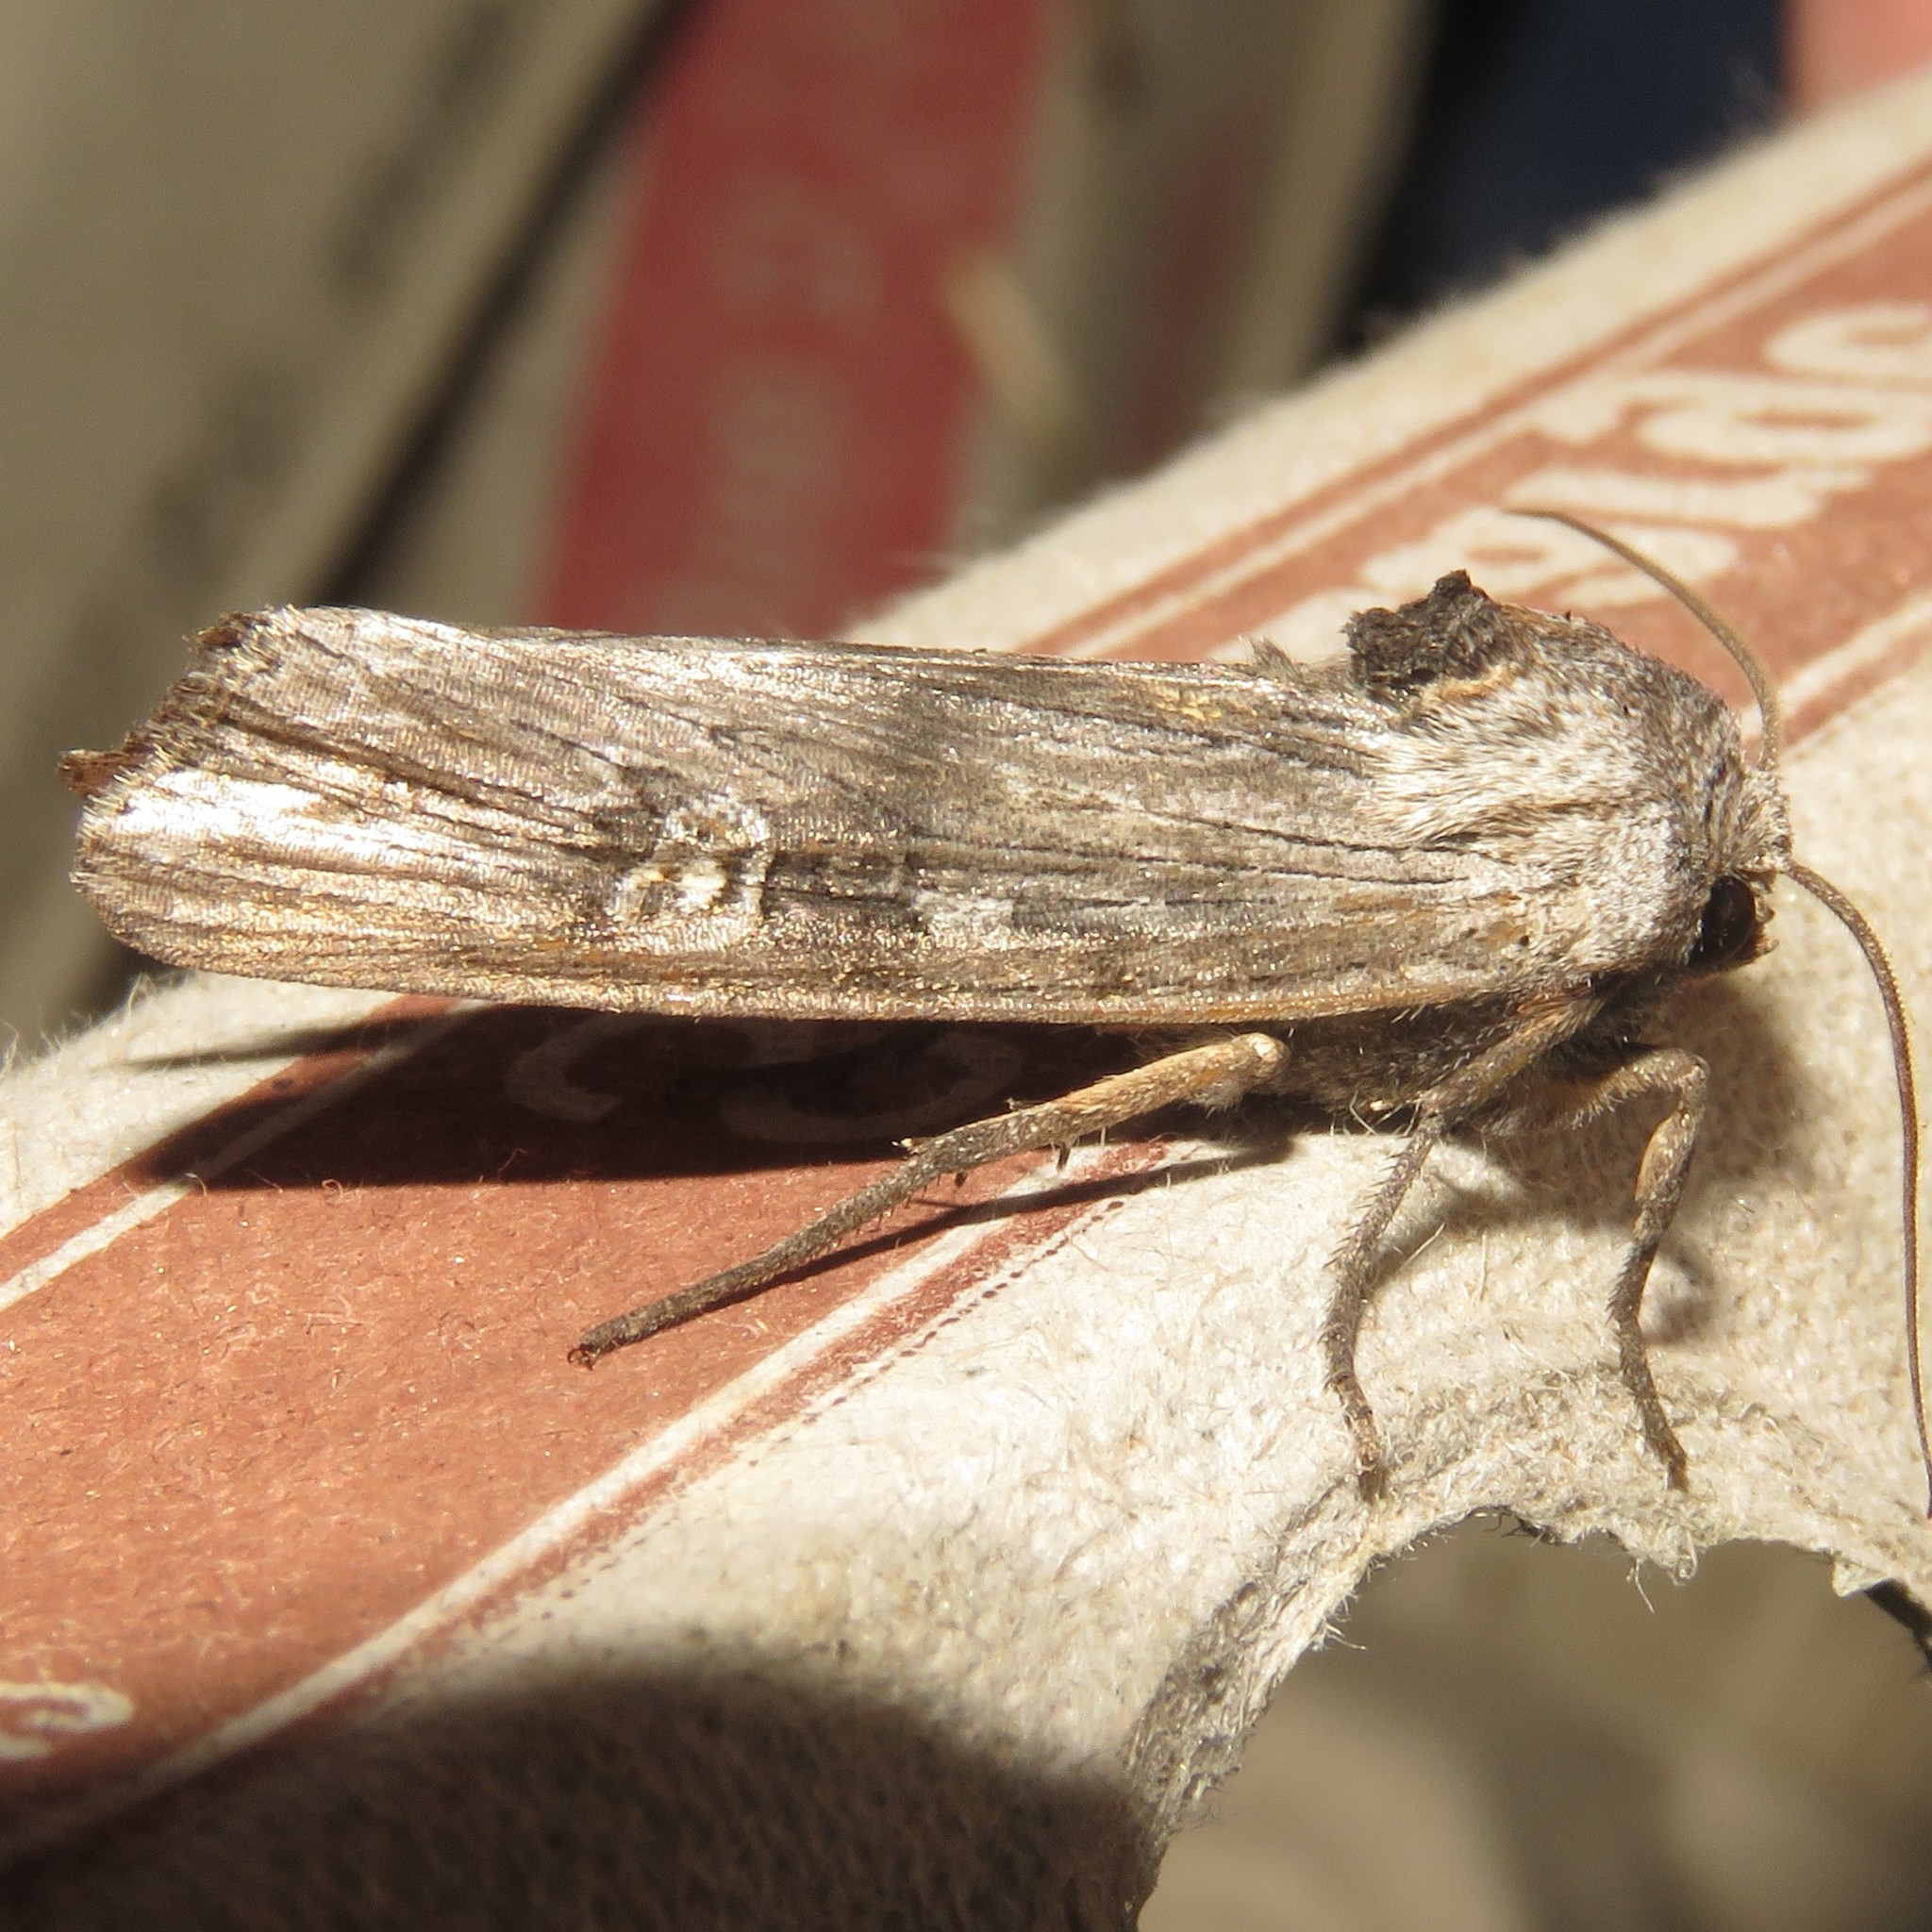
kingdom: Animalia
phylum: Arthropoda
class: Insecta
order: Lepidoptera
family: Noctuidae
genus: Xylena
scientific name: Xylena germana
